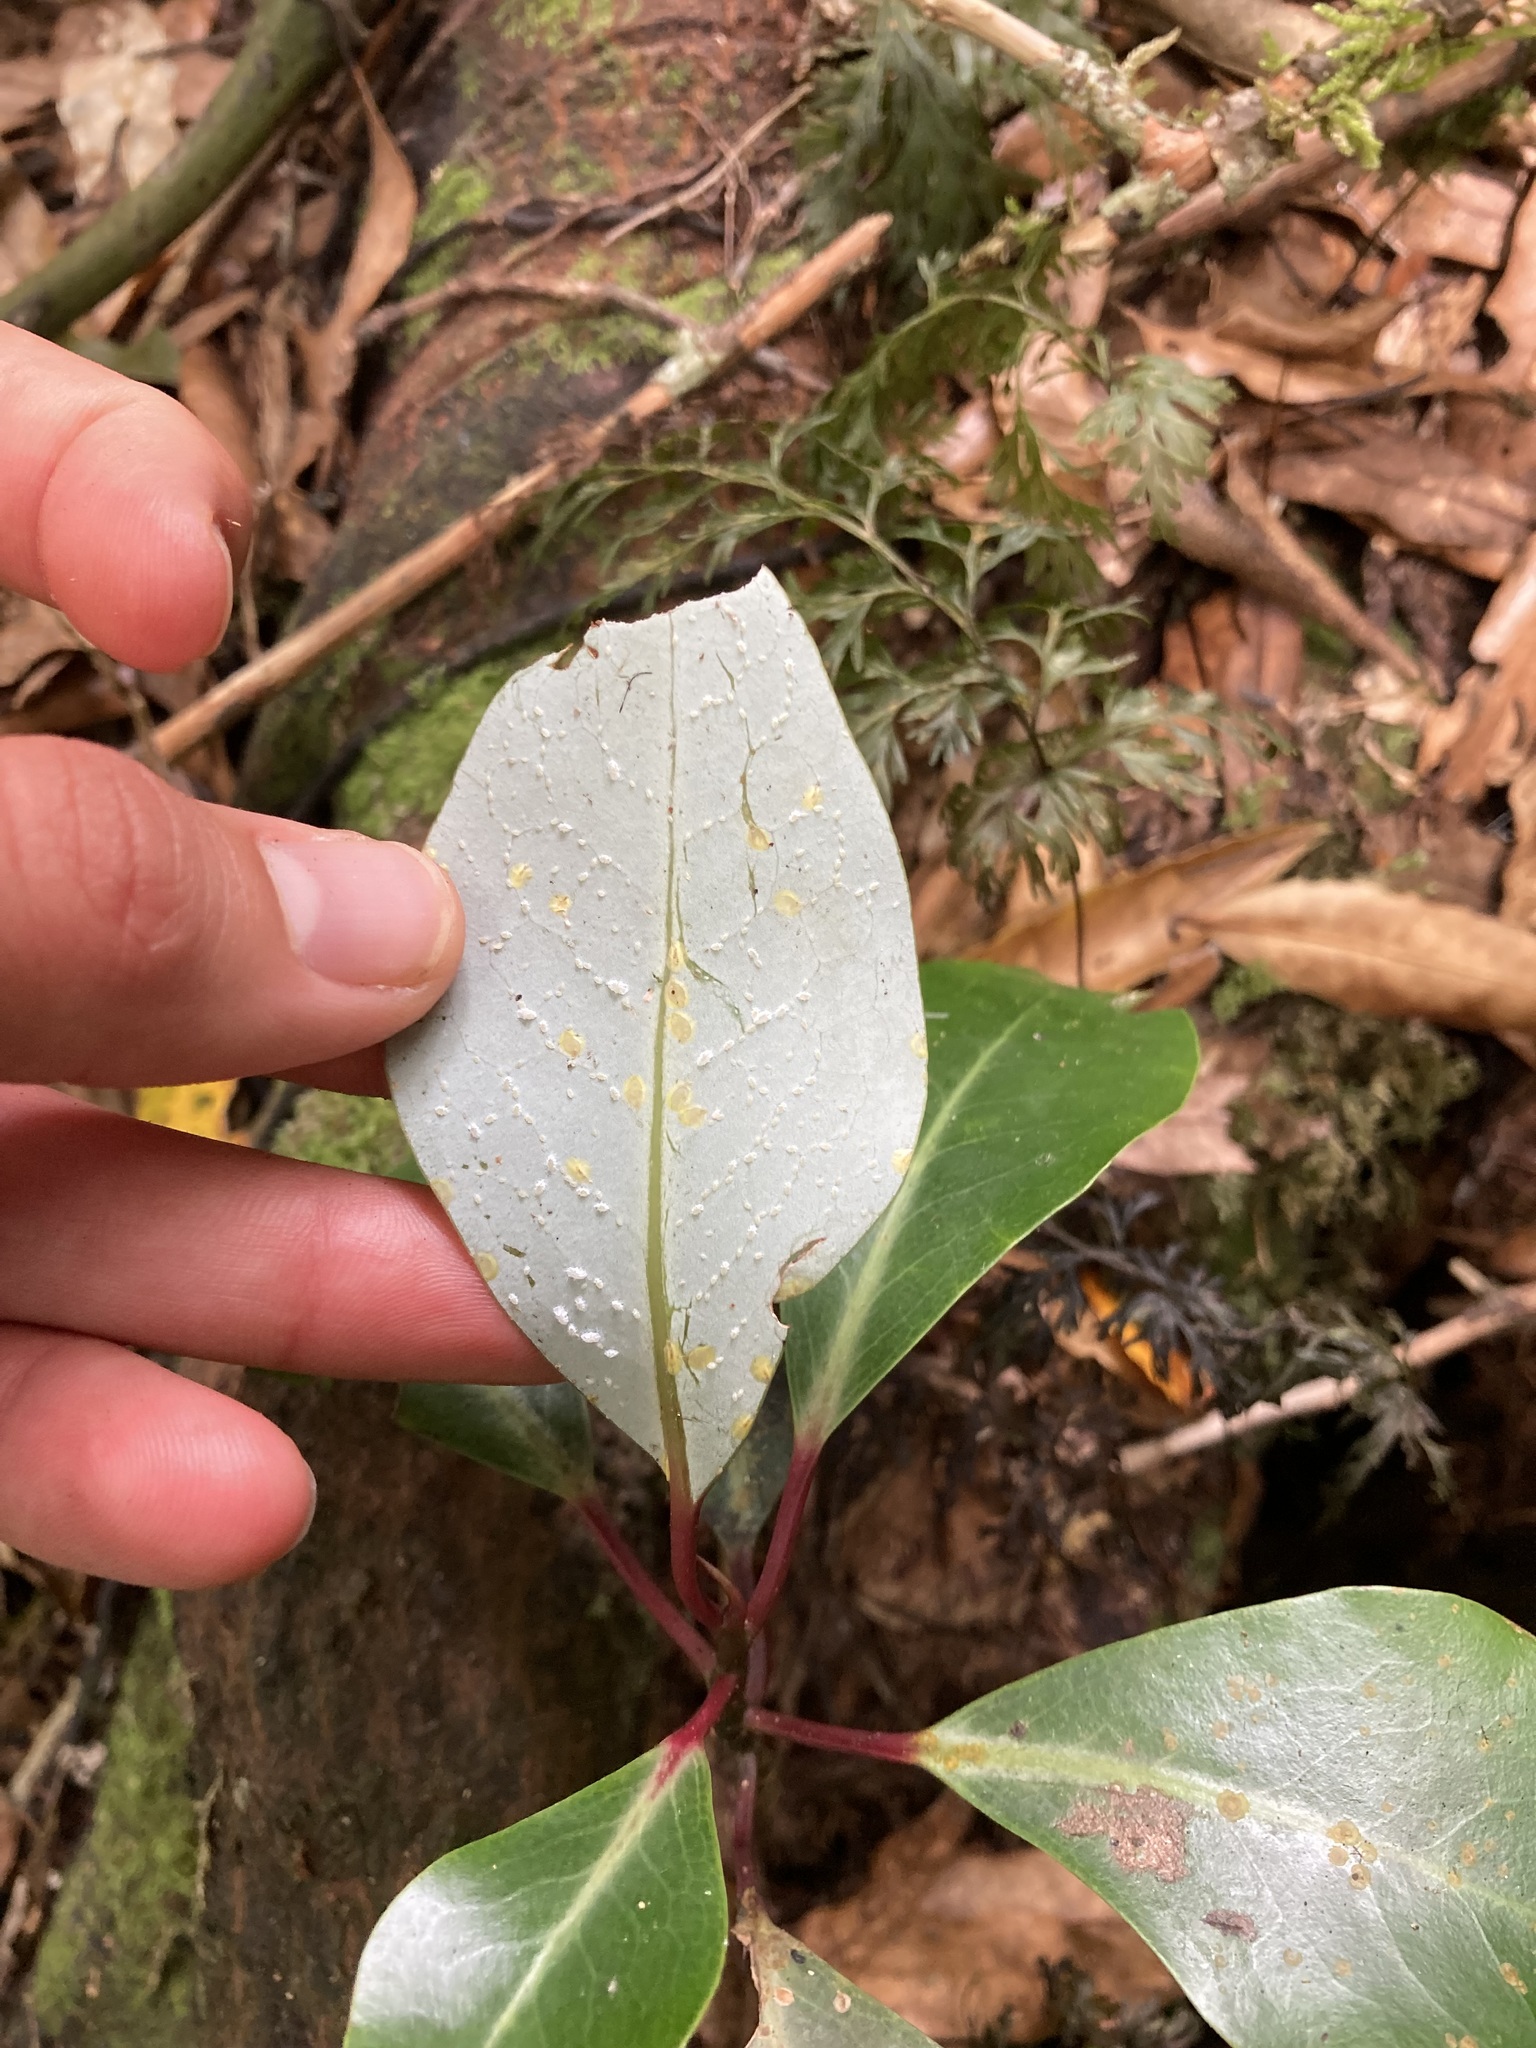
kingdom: Plantae
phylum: Tracheophyta
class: Magnoliopsida
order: Canellales
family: Winteraceae
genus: Pseudowintera
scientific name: Pseudowintera axillaris
